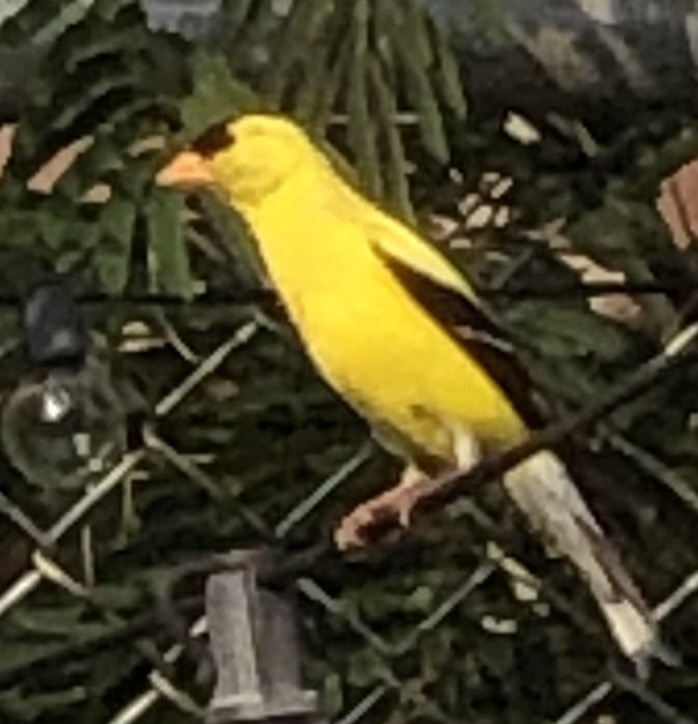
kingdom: Animalia
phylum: Chordata
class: Aves
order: Passeriformes
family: Fringillidae
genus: Spinus
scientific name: Spinus tristis
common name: American goldfinch
